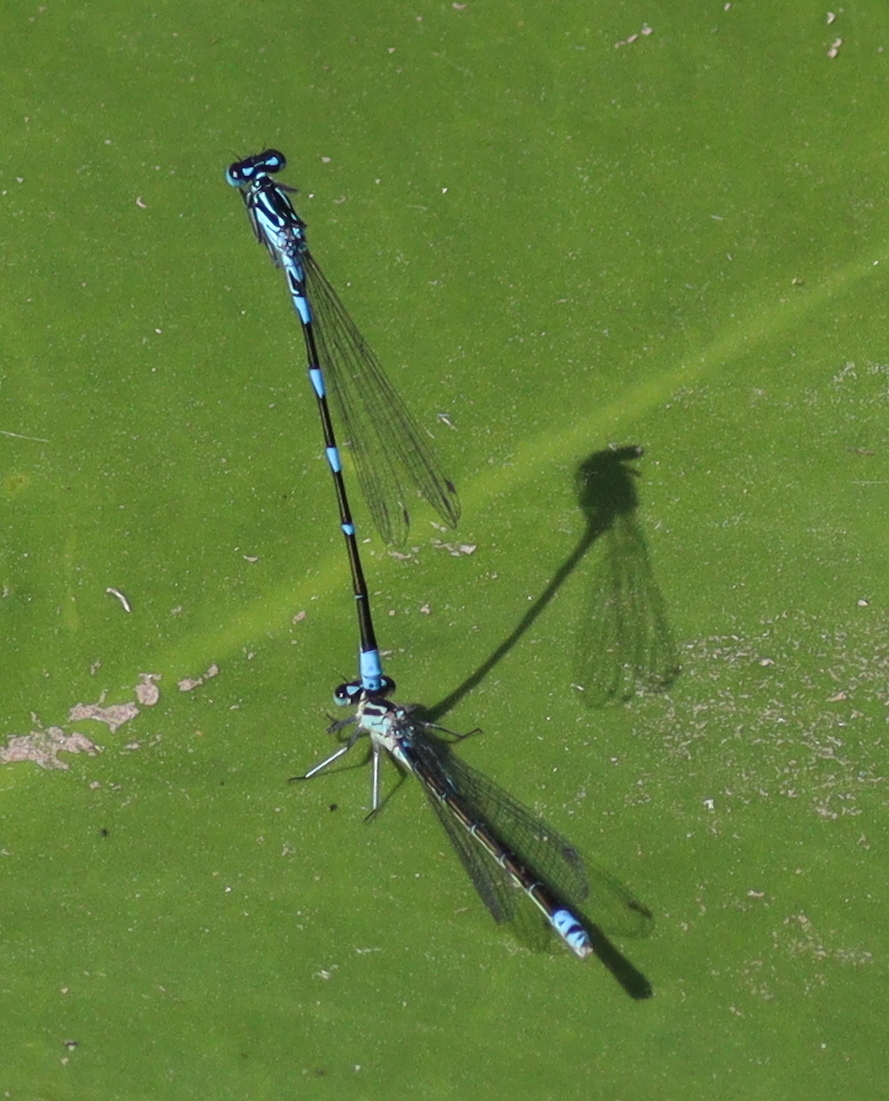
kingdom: Animalia
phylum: Arthropoda
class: Insecta
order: Odonata
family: Coenagrionidae
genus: Coenagrion
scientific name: Coenagrion pulchellum
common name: Variable bluet
